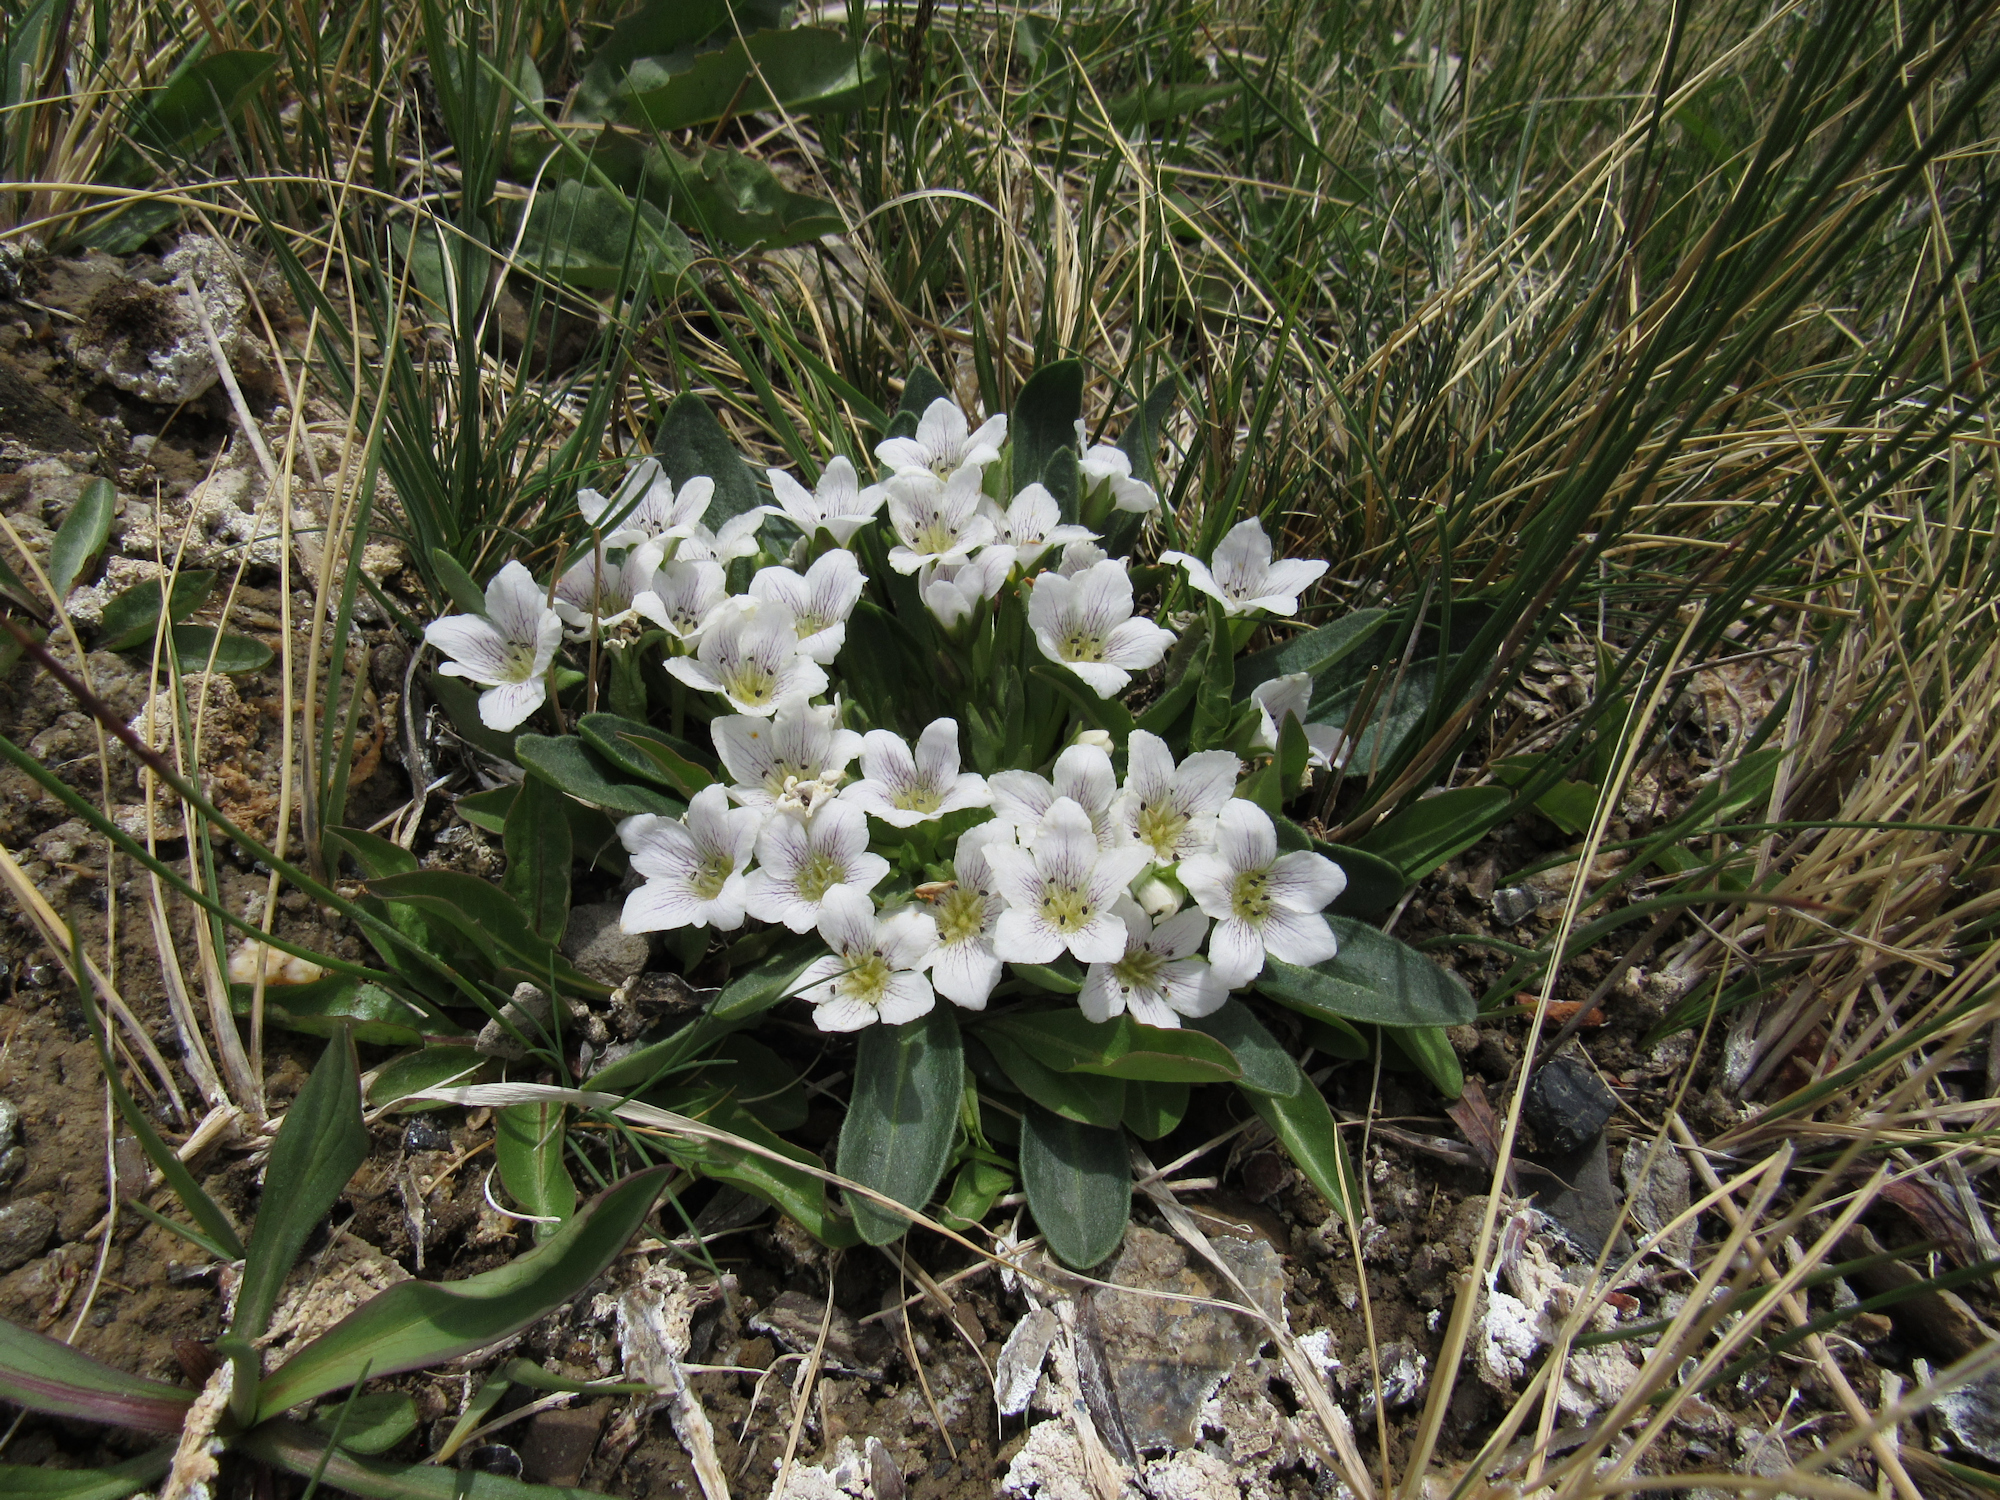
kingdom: Plantae
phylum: Tracheophyta
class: Magnoliopsida
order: Boraginales
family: Hydrophyllaceae
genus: Hesperochiron
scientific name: Hesperochiron californicus
